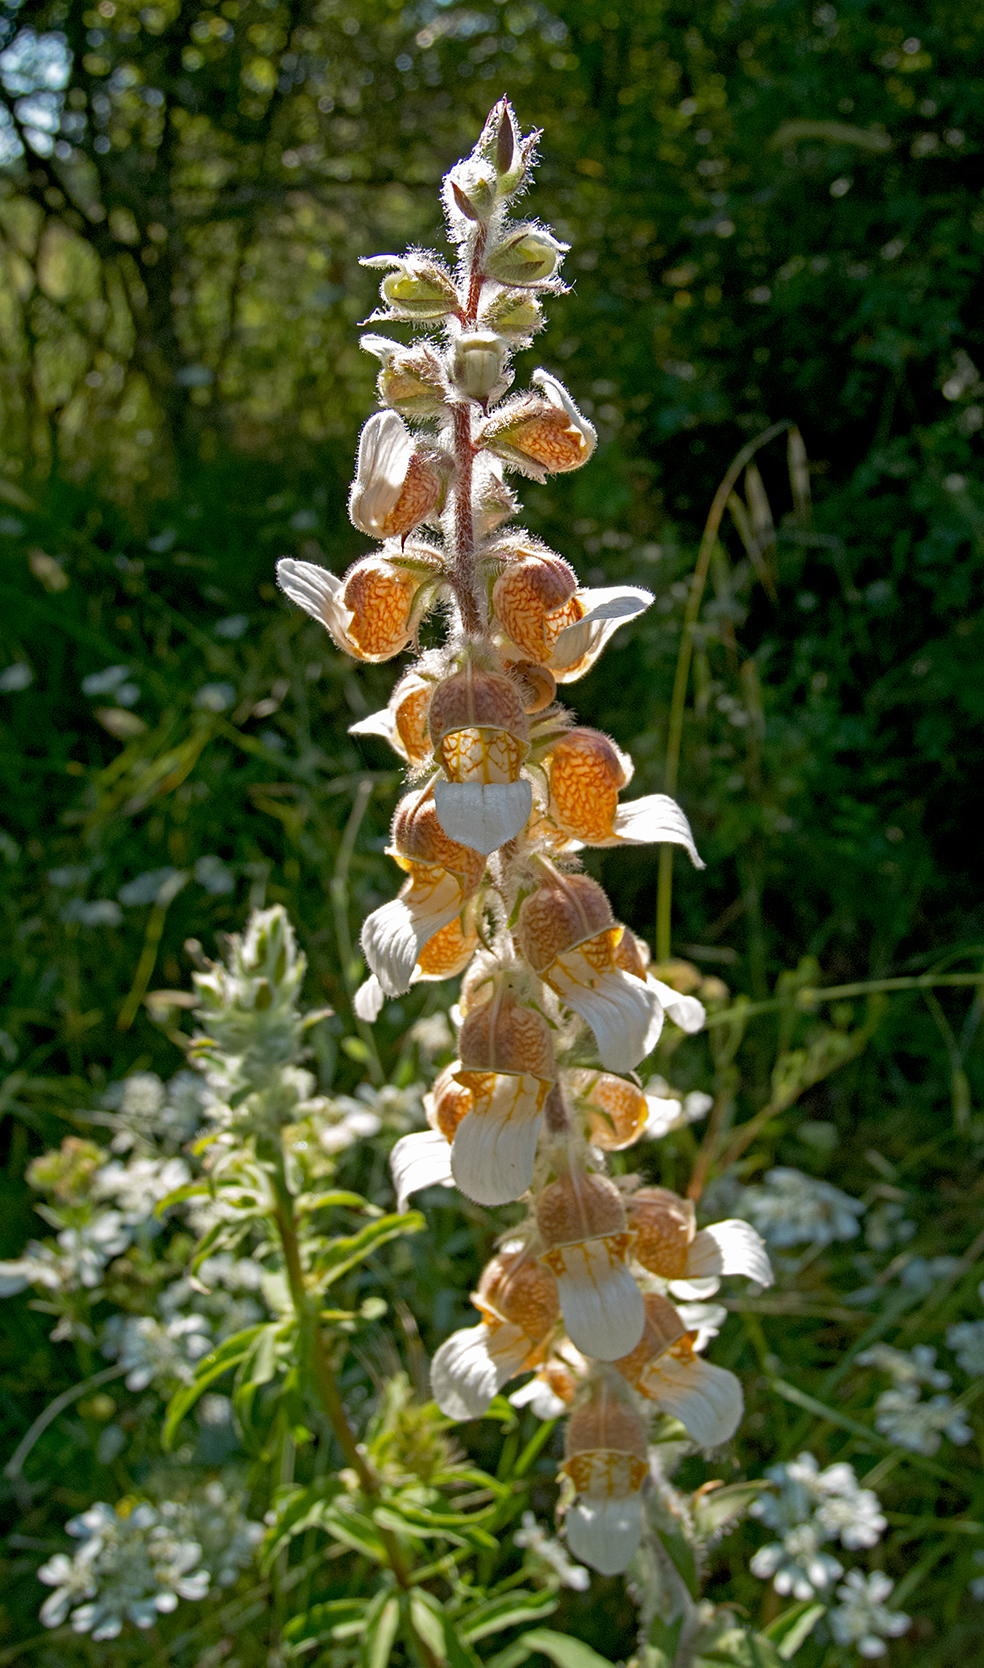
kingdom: Plantae
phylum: Tracheophyta
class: Magnoliopsida
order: Lamiales
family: Plantaginaceae
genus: Digitalis
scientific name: Digitalis lanata
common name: Grecian foxglove
